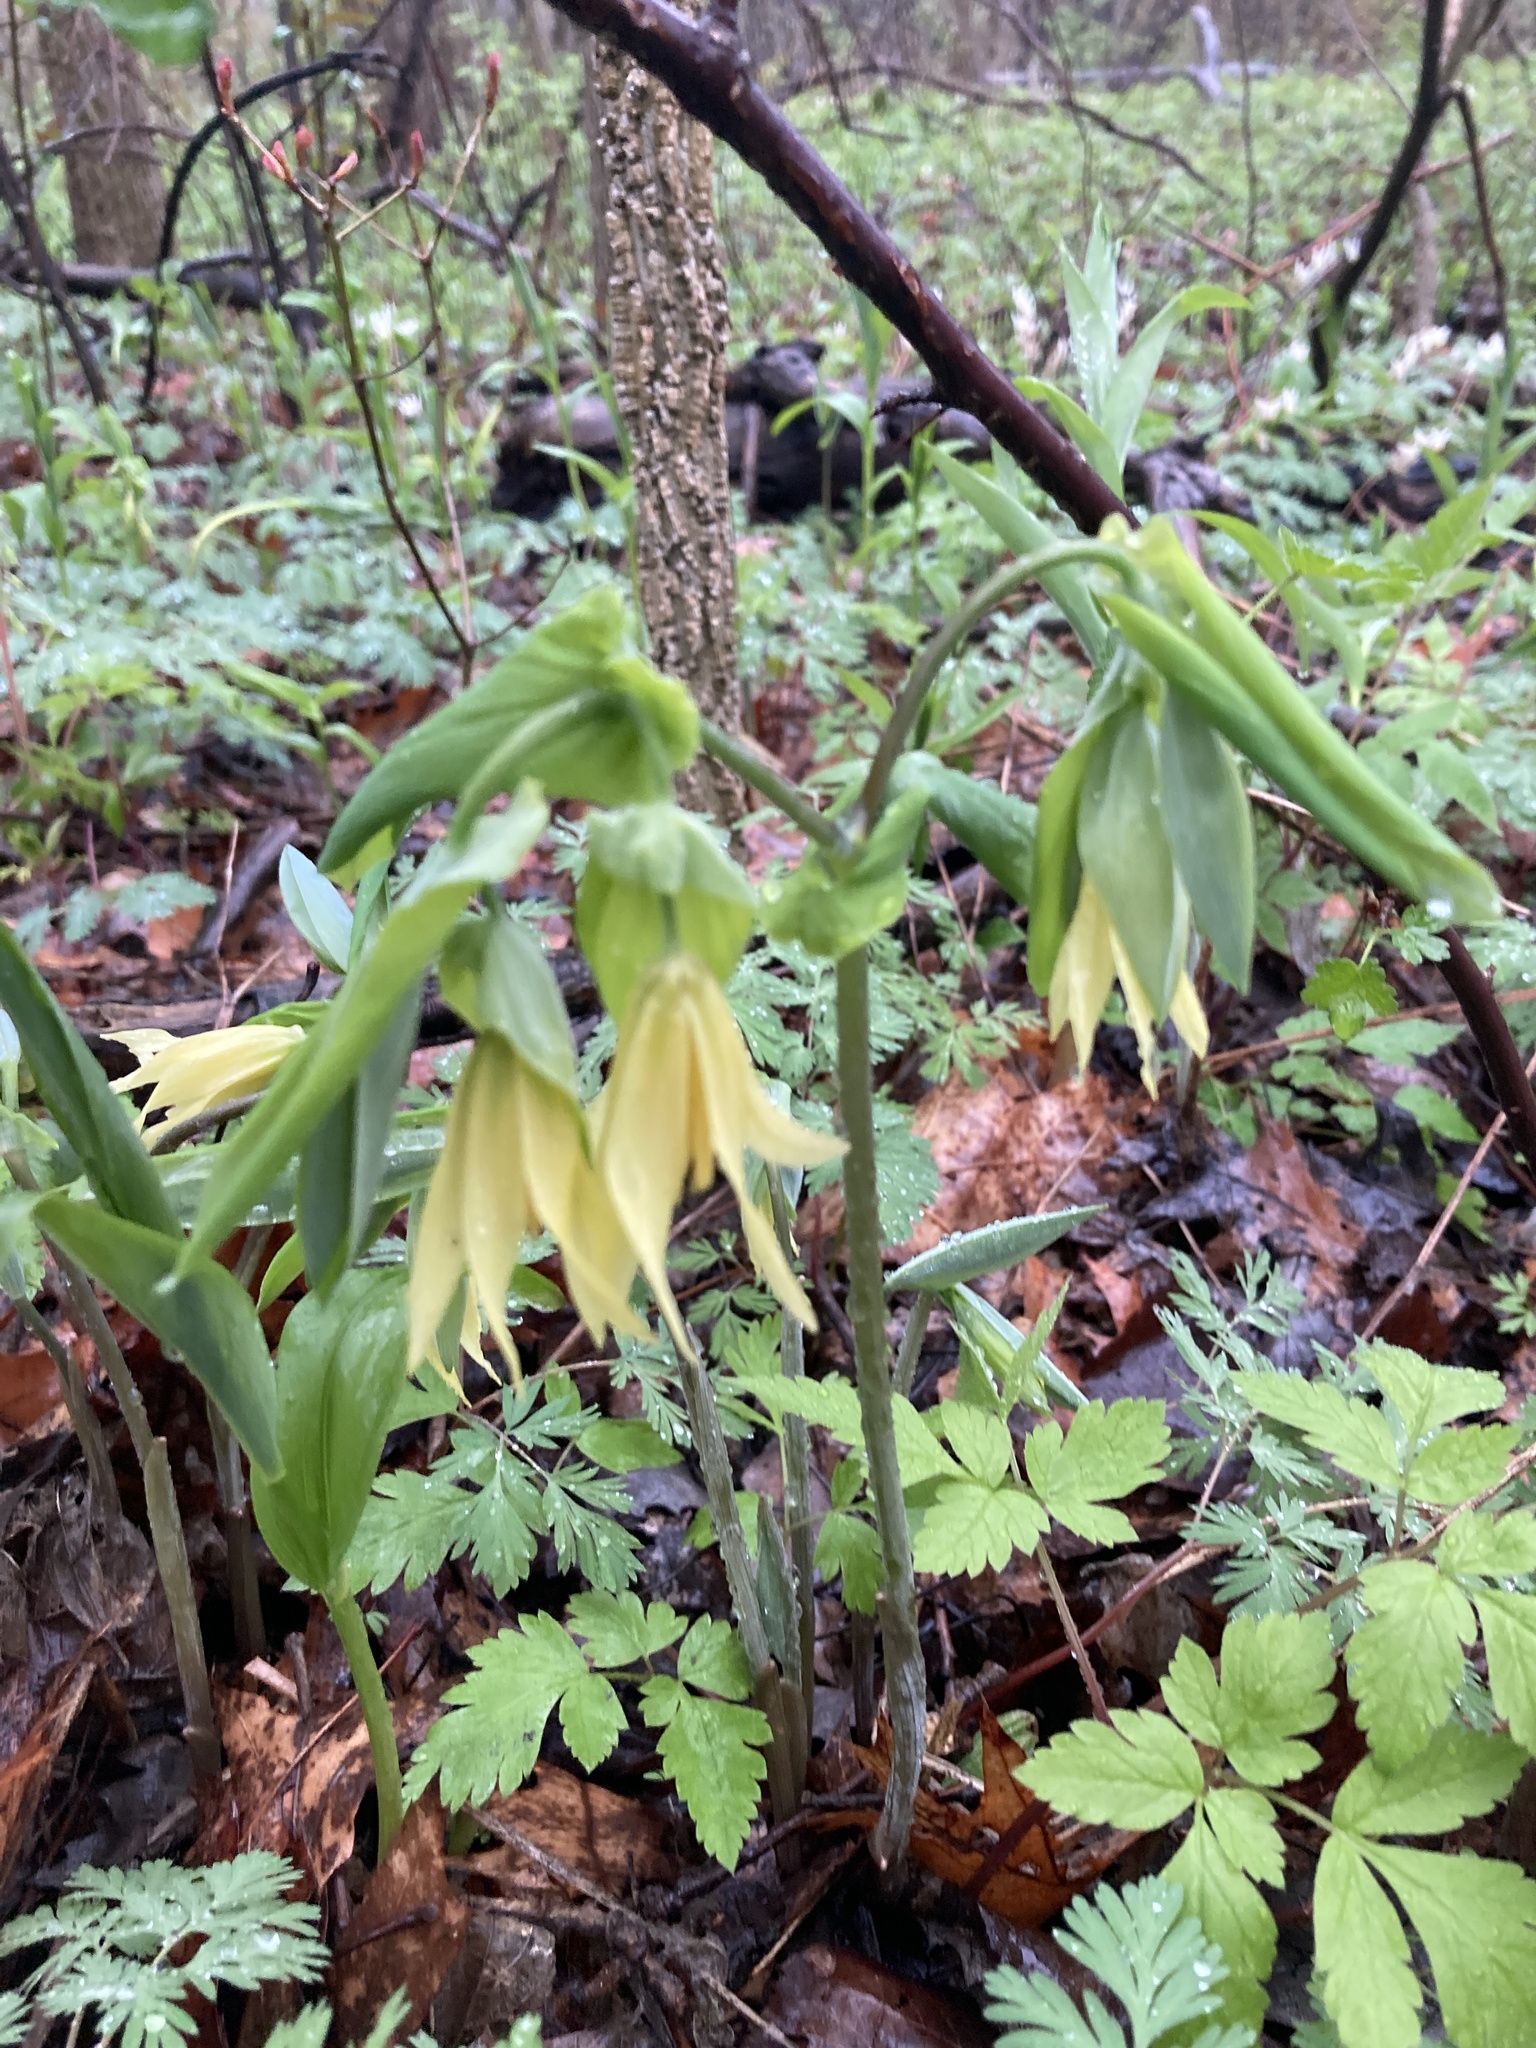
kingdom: Plantae
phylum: Tracheophyta
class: Liliopsida
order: Liliales
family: Colchicaceae
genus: Uvularia
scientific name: Uvularia grandiflora
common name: Bellwort
